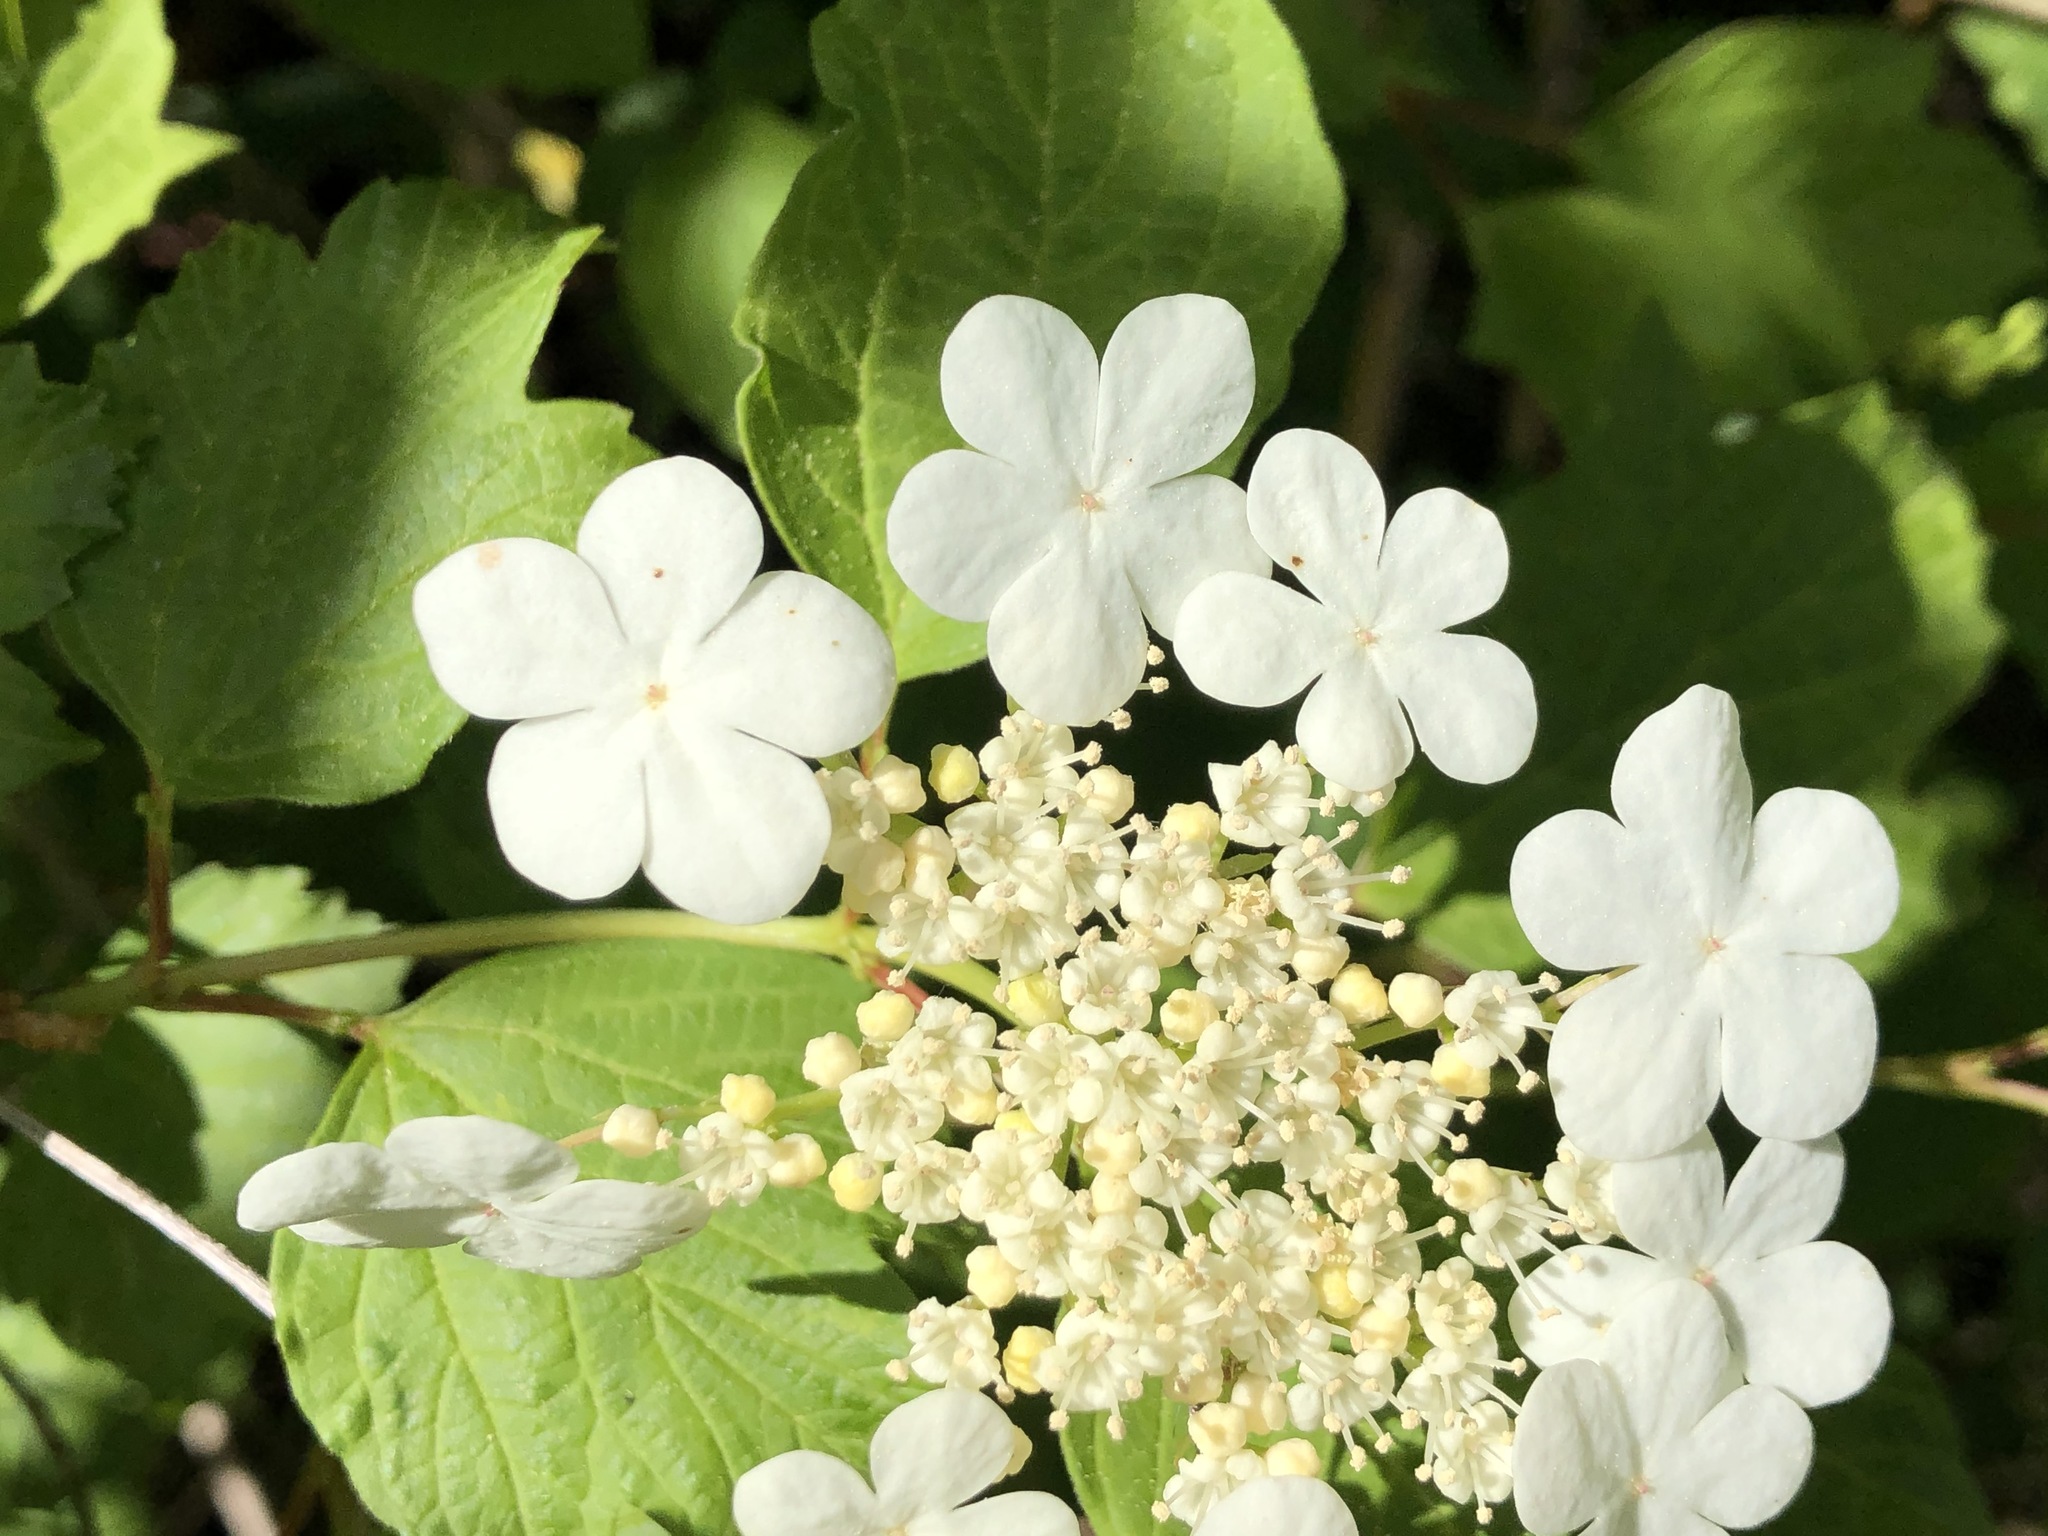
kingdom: Plantae
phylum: Tracheophyta
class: Magnoliopsida
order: Dipsacales
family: Viburnaceae
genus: Viburnum
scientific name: Viburnum opulus
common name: Guelder-rose
